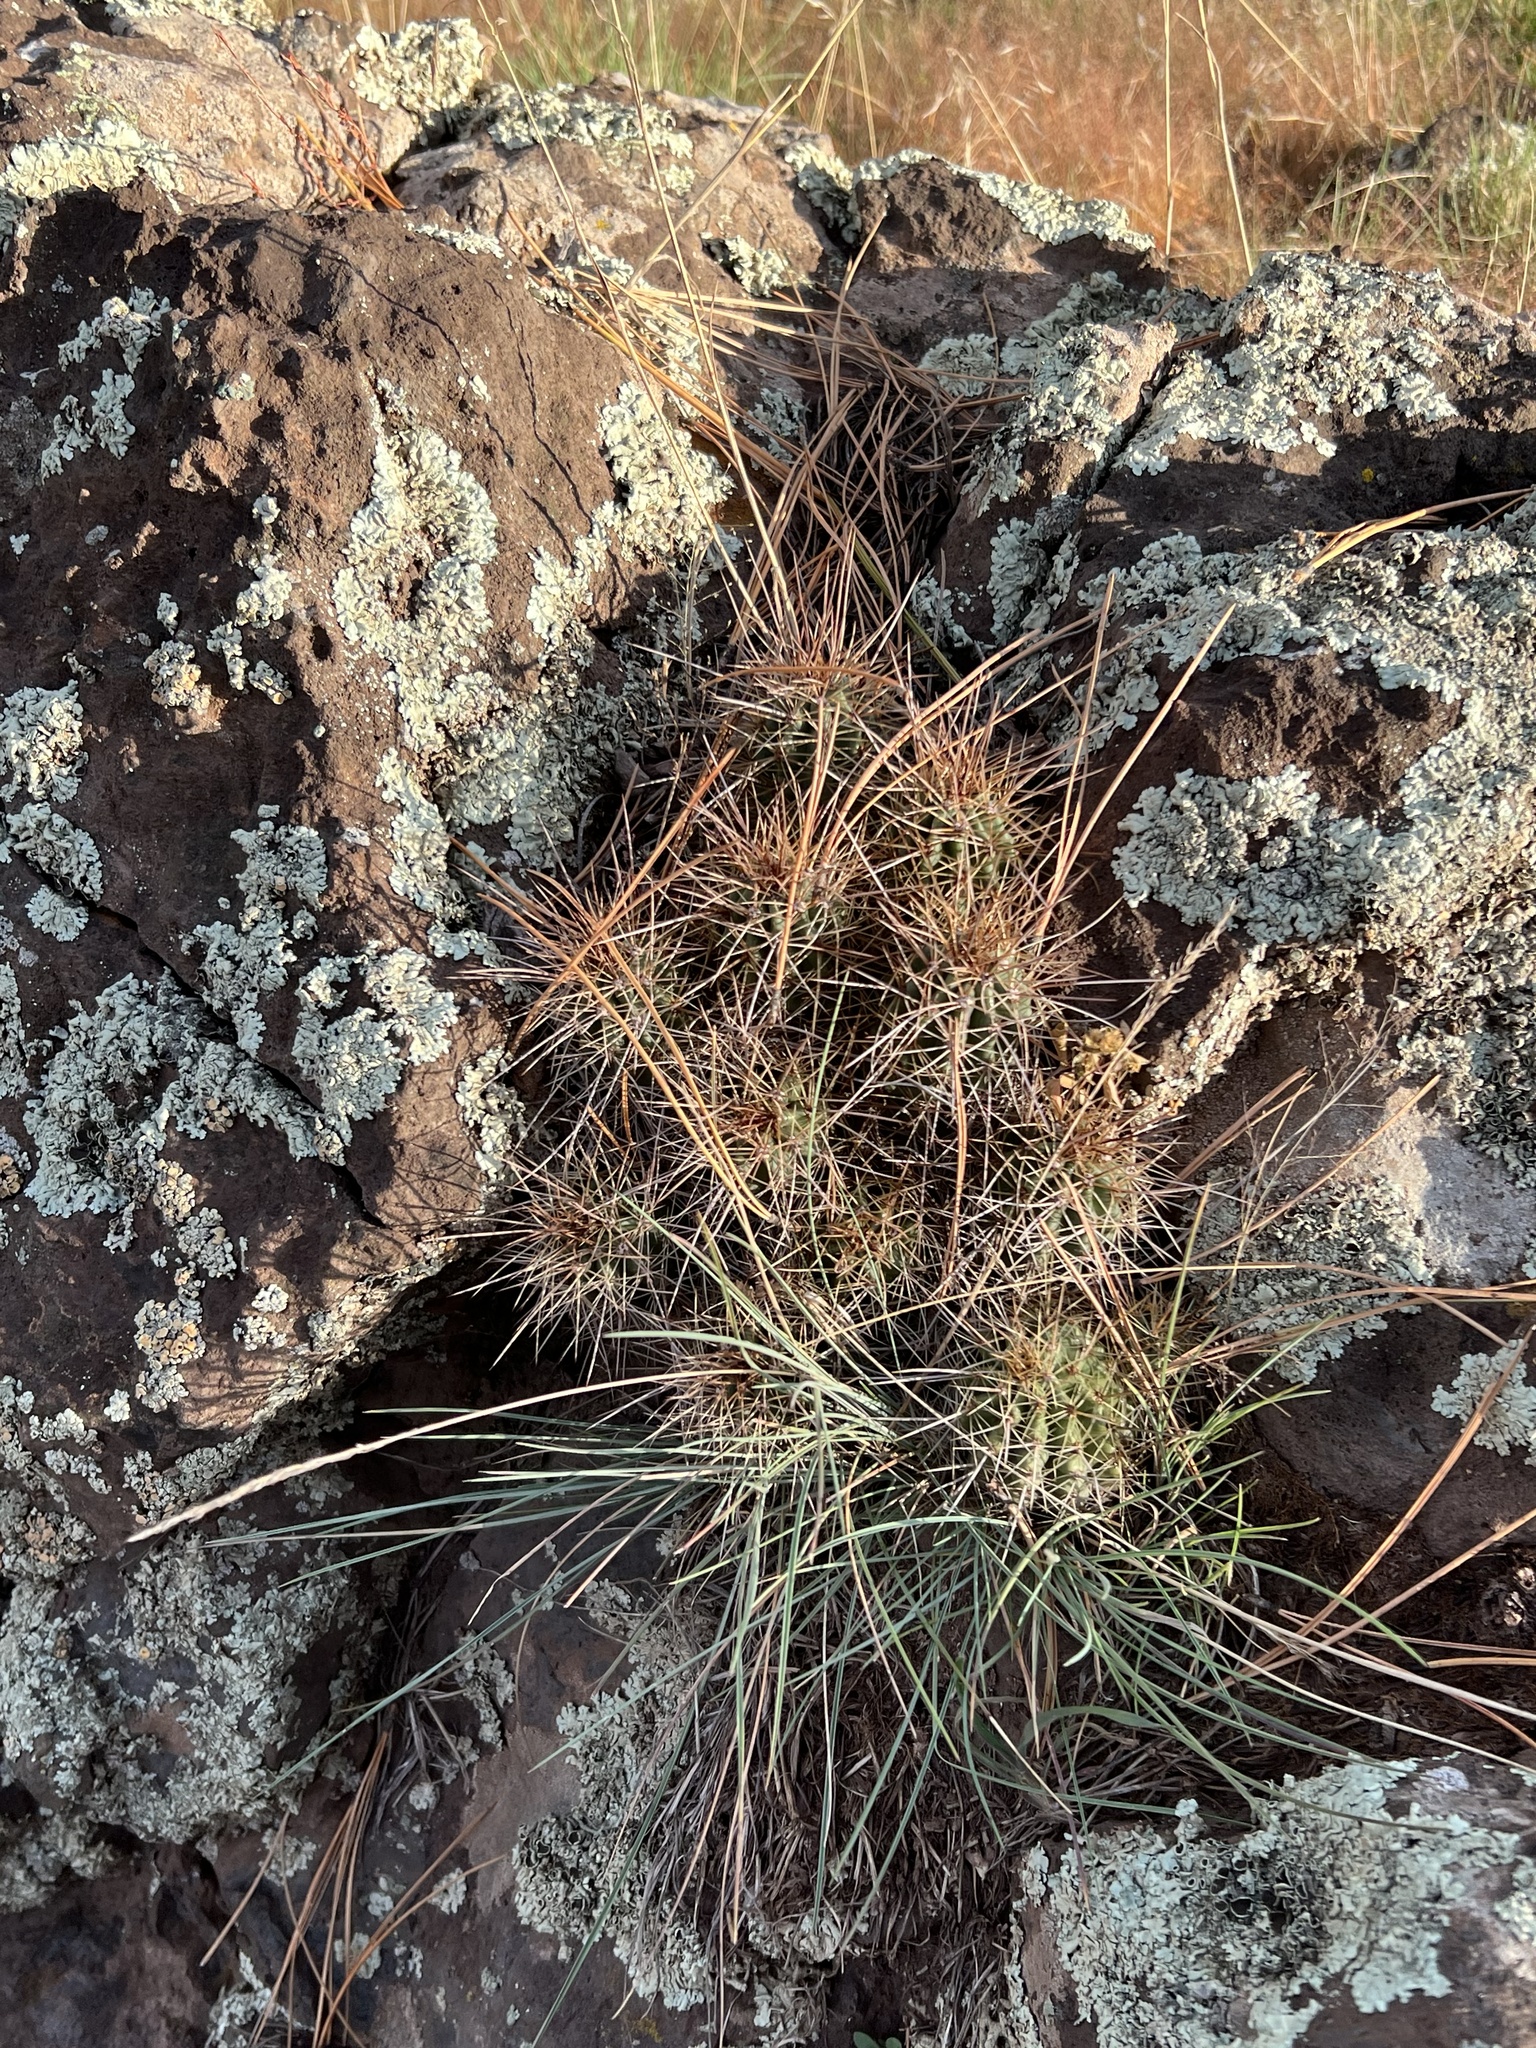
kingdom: Plantae
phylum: Tracheophyta
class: Magnoliopsida
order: Caryophyllales
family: Cactaceae
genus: Echinocereus
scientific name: Echinocereus bakeri
